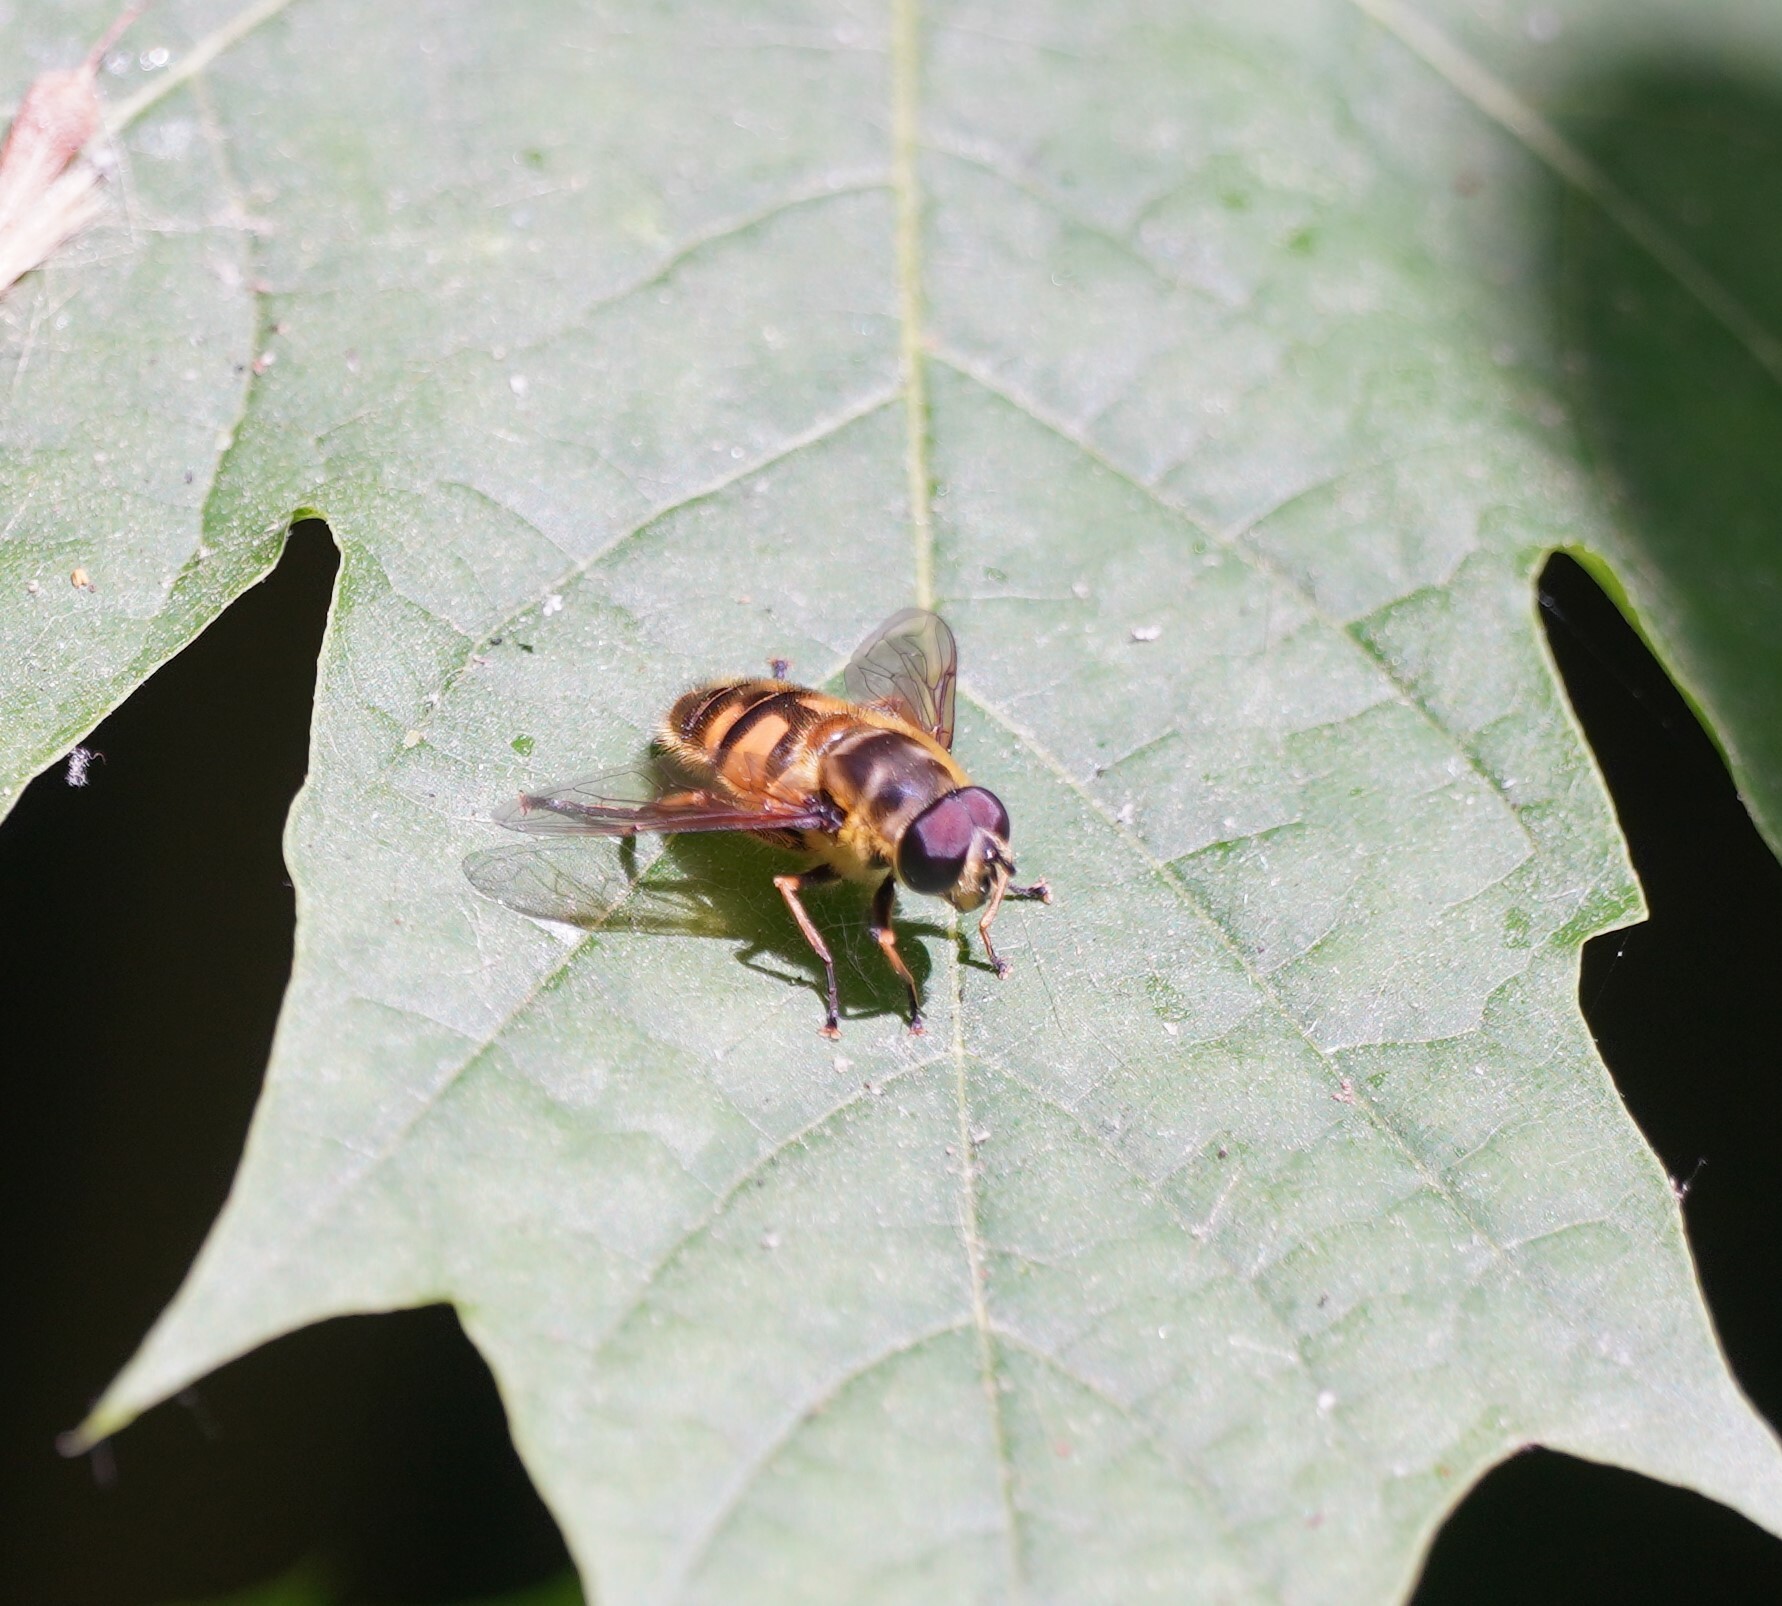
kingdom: Animalia
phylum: Arthropoda
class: Insecta
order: Diptera
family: Syrphidae
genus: Myathropa
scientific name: Myathropa florea
